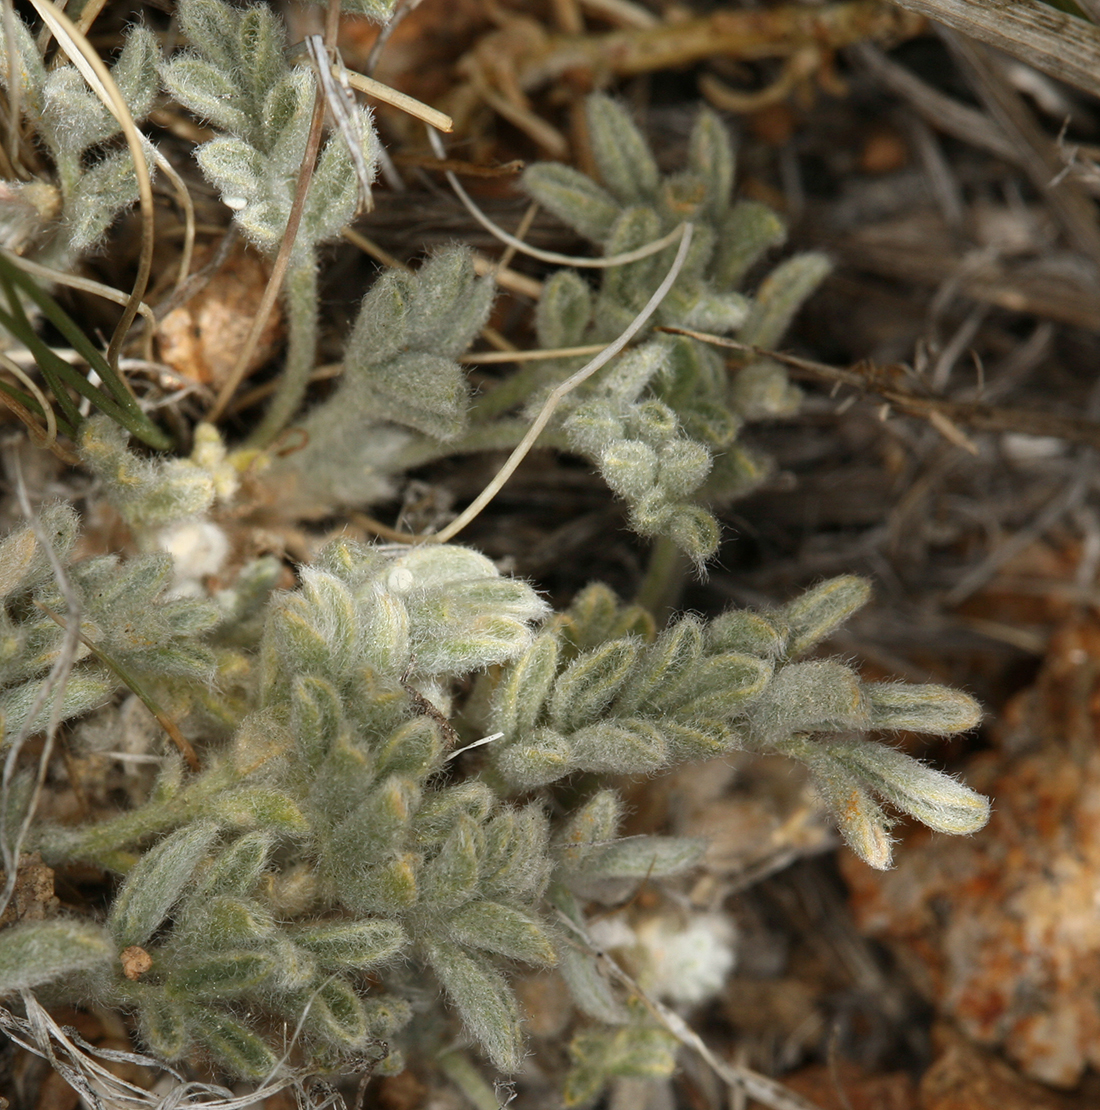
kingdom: Plantae
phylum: Tracheophyta
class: Magnoliopsida
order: Fabales
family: Fabaceae
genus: Astragalus
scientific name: Astragalus purshii
